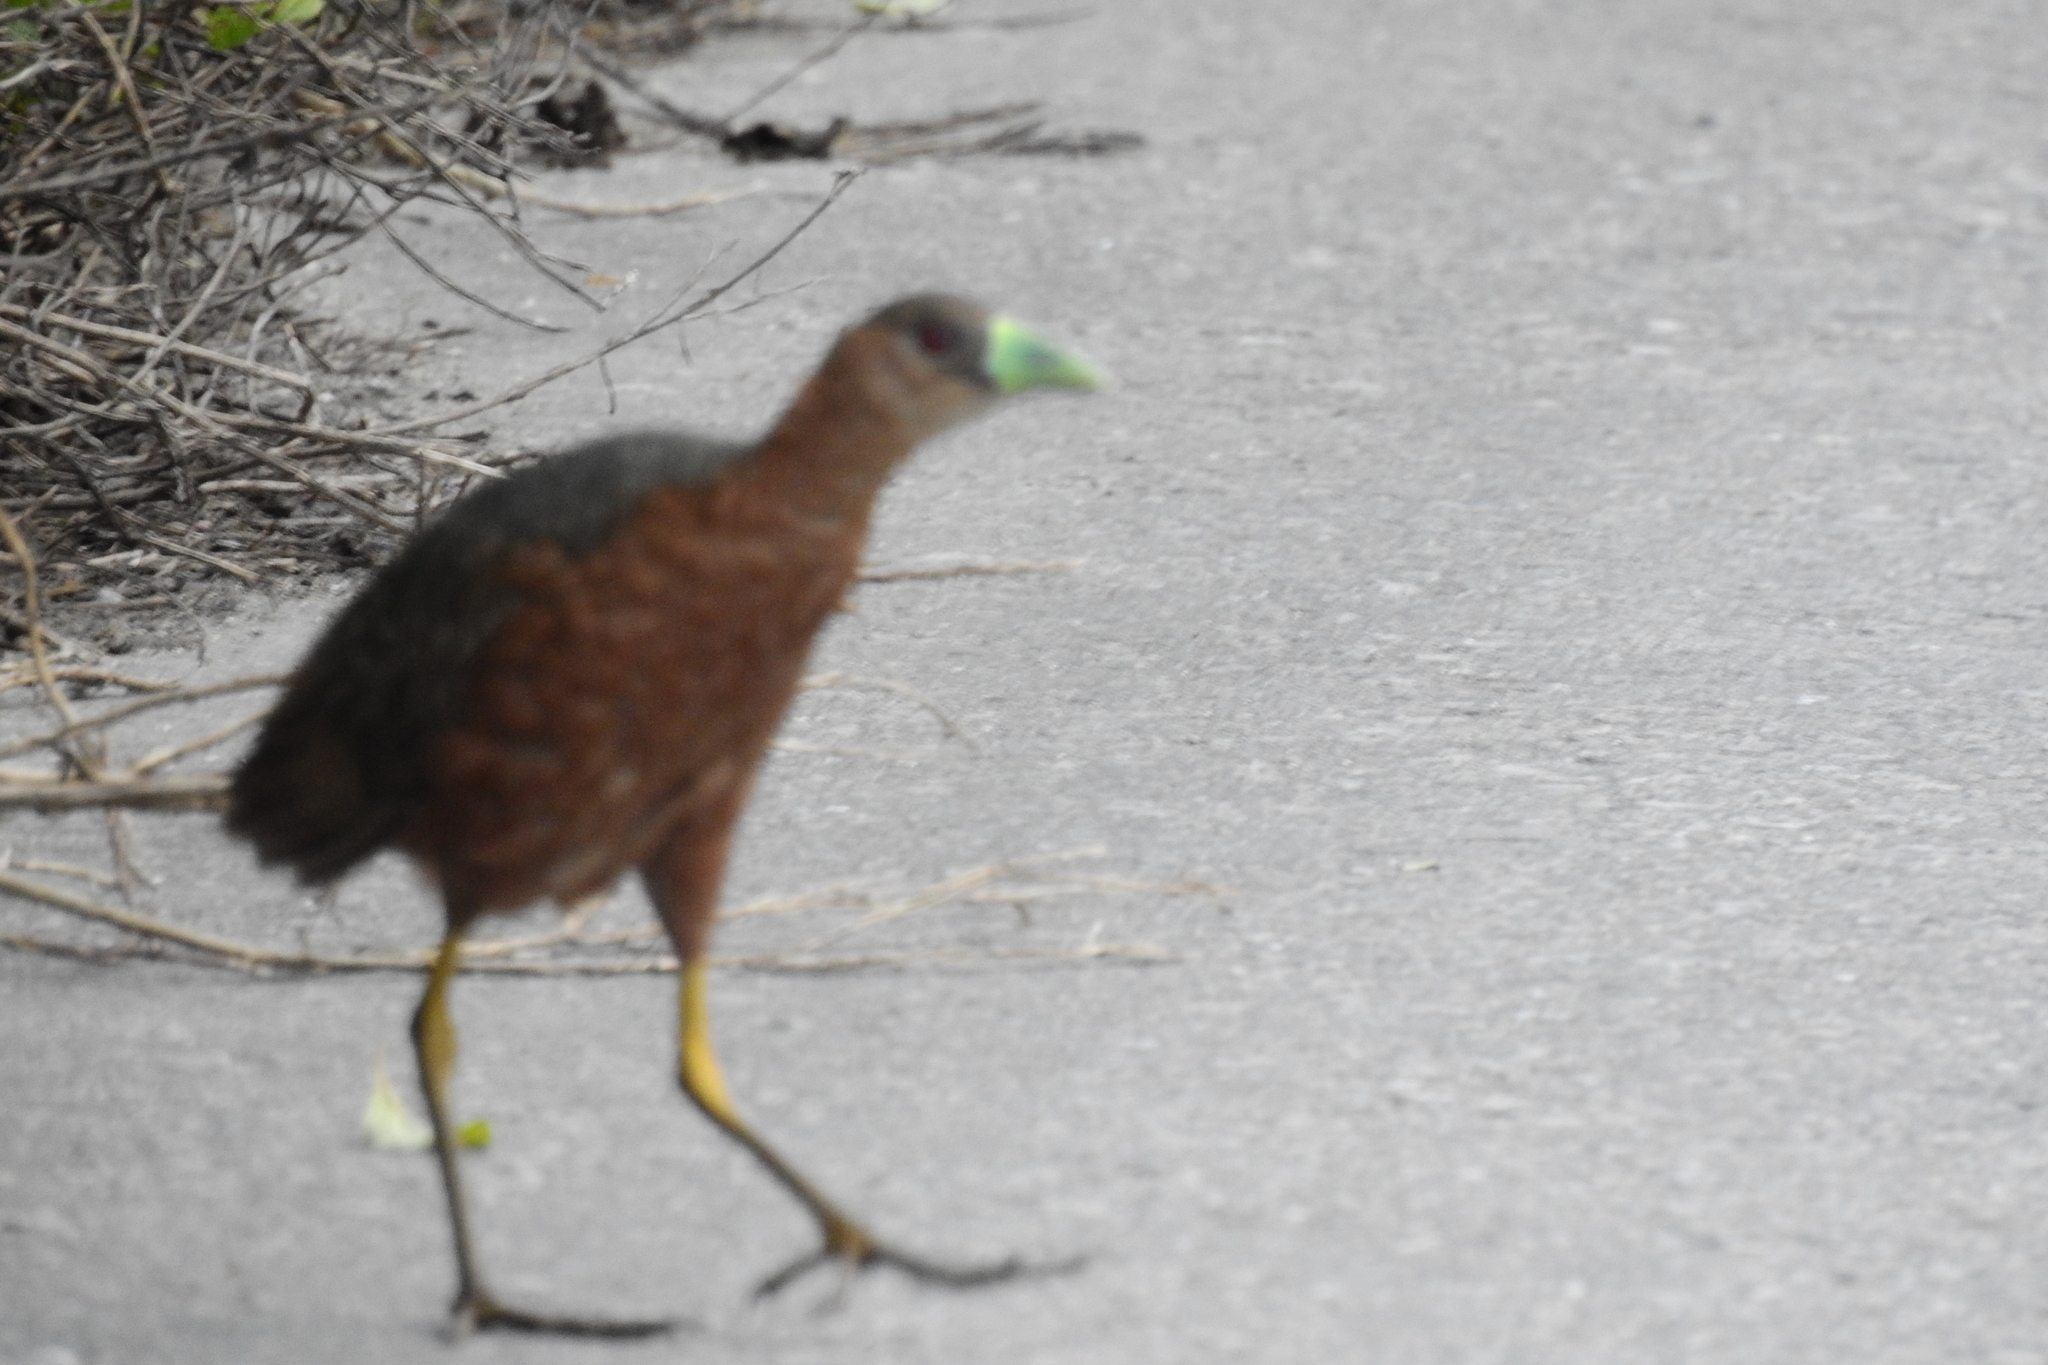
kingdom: Animalia
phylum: Chordata
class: Aves
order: Gruiformes
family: Rallidae
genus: Amaurornis
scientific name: Amaurornis isabellina
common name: Isabelline bush-hen
